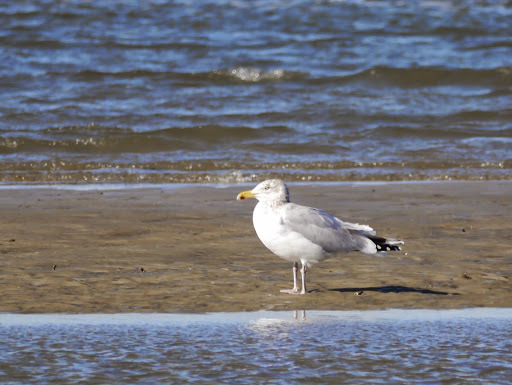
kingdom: Animalia
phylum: Chordata
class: Aves
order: Charadriiformes
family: Laridae
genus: Larus
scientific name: Larus argentatus
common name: Herring gull
